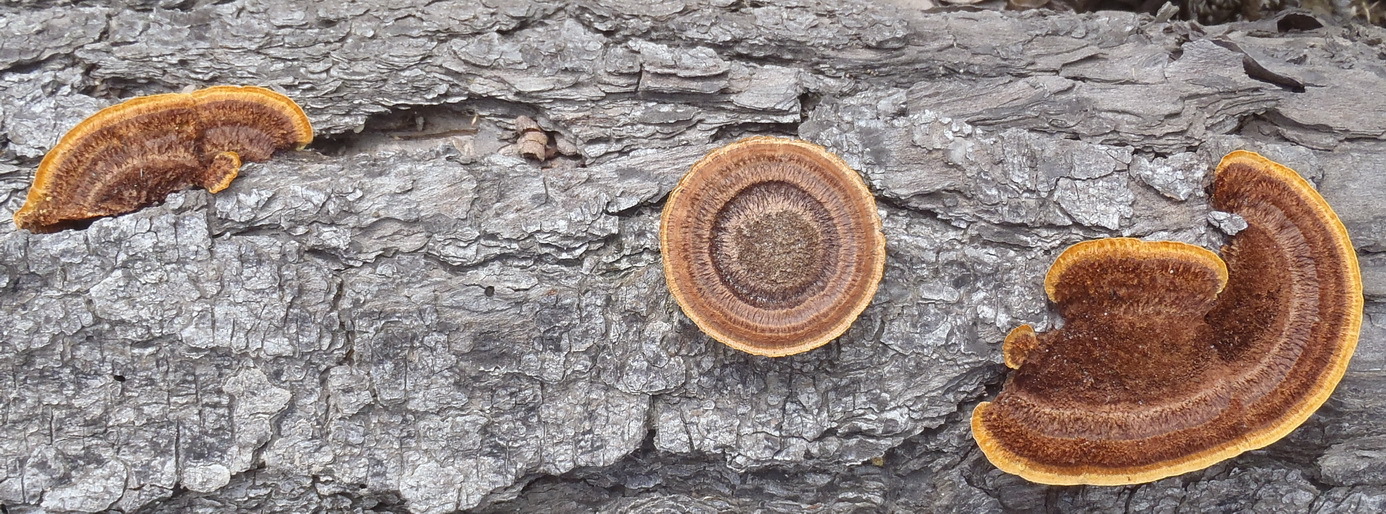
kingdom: Fungi
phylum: Basidiomycota
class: Agaricomycetes
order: Gloeophyllales
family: Gloeophyllaceae
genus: Gloeophyllum
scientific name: Gloeophyllum sepiarium
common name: Conifer mazegill
